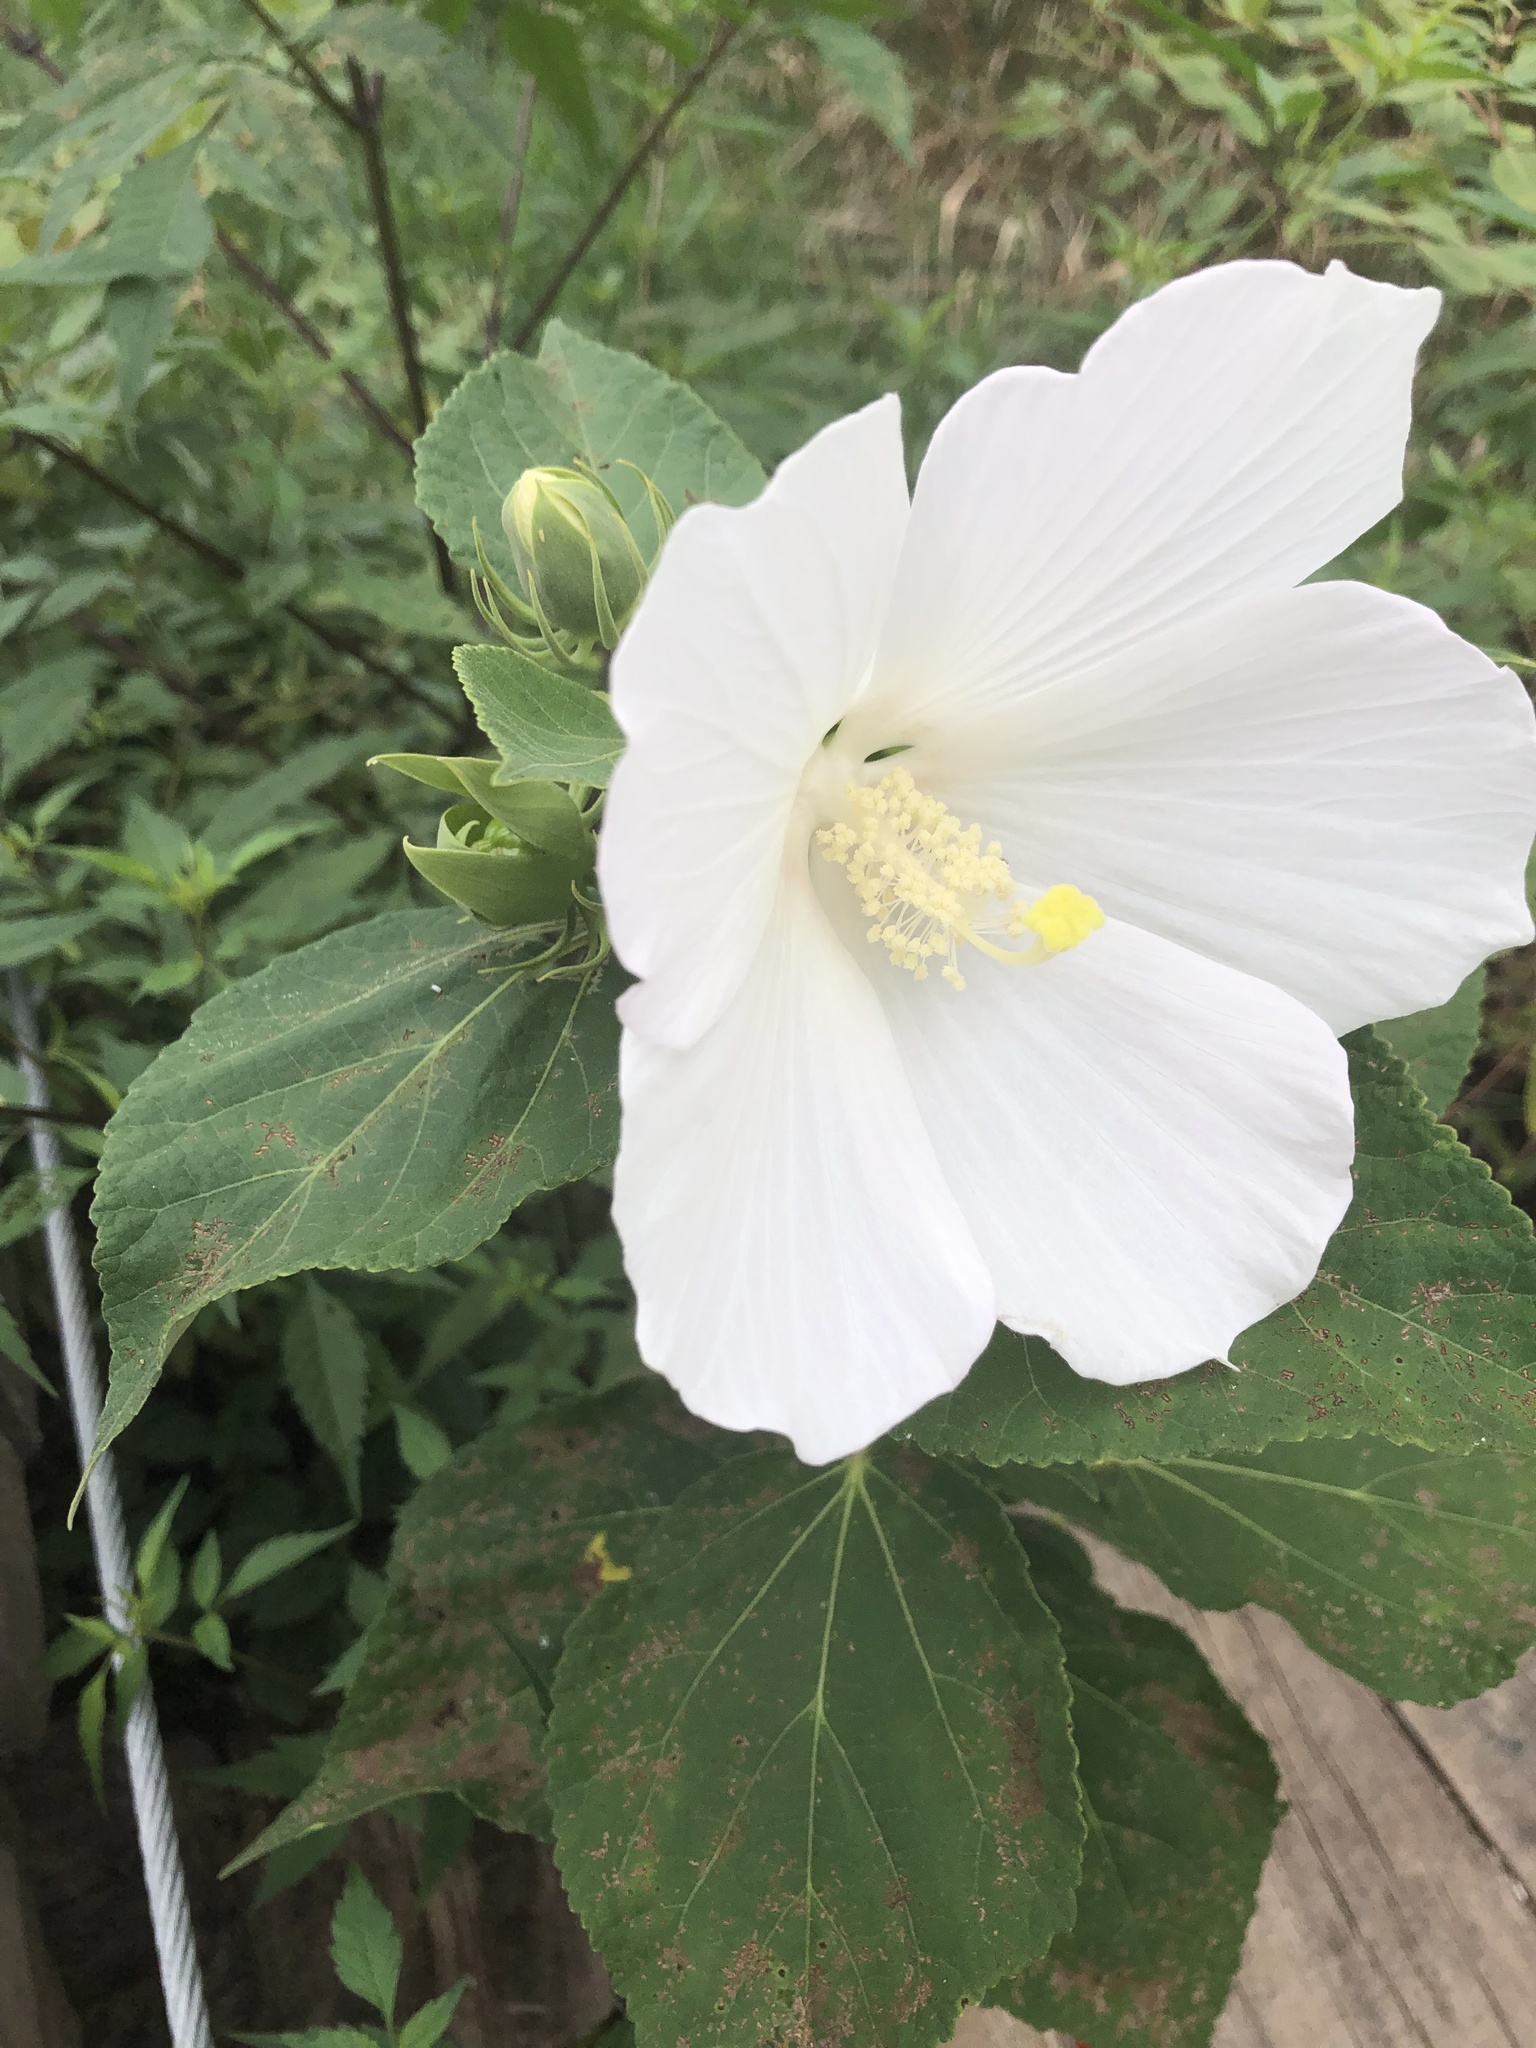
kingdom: Plantae
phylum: Tracheophyta
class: Magnoliopsida
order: Malvales
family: Malvaceae
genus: Hibiscus
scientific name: Hibiscus moscheutos
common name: Common rose-mallow
